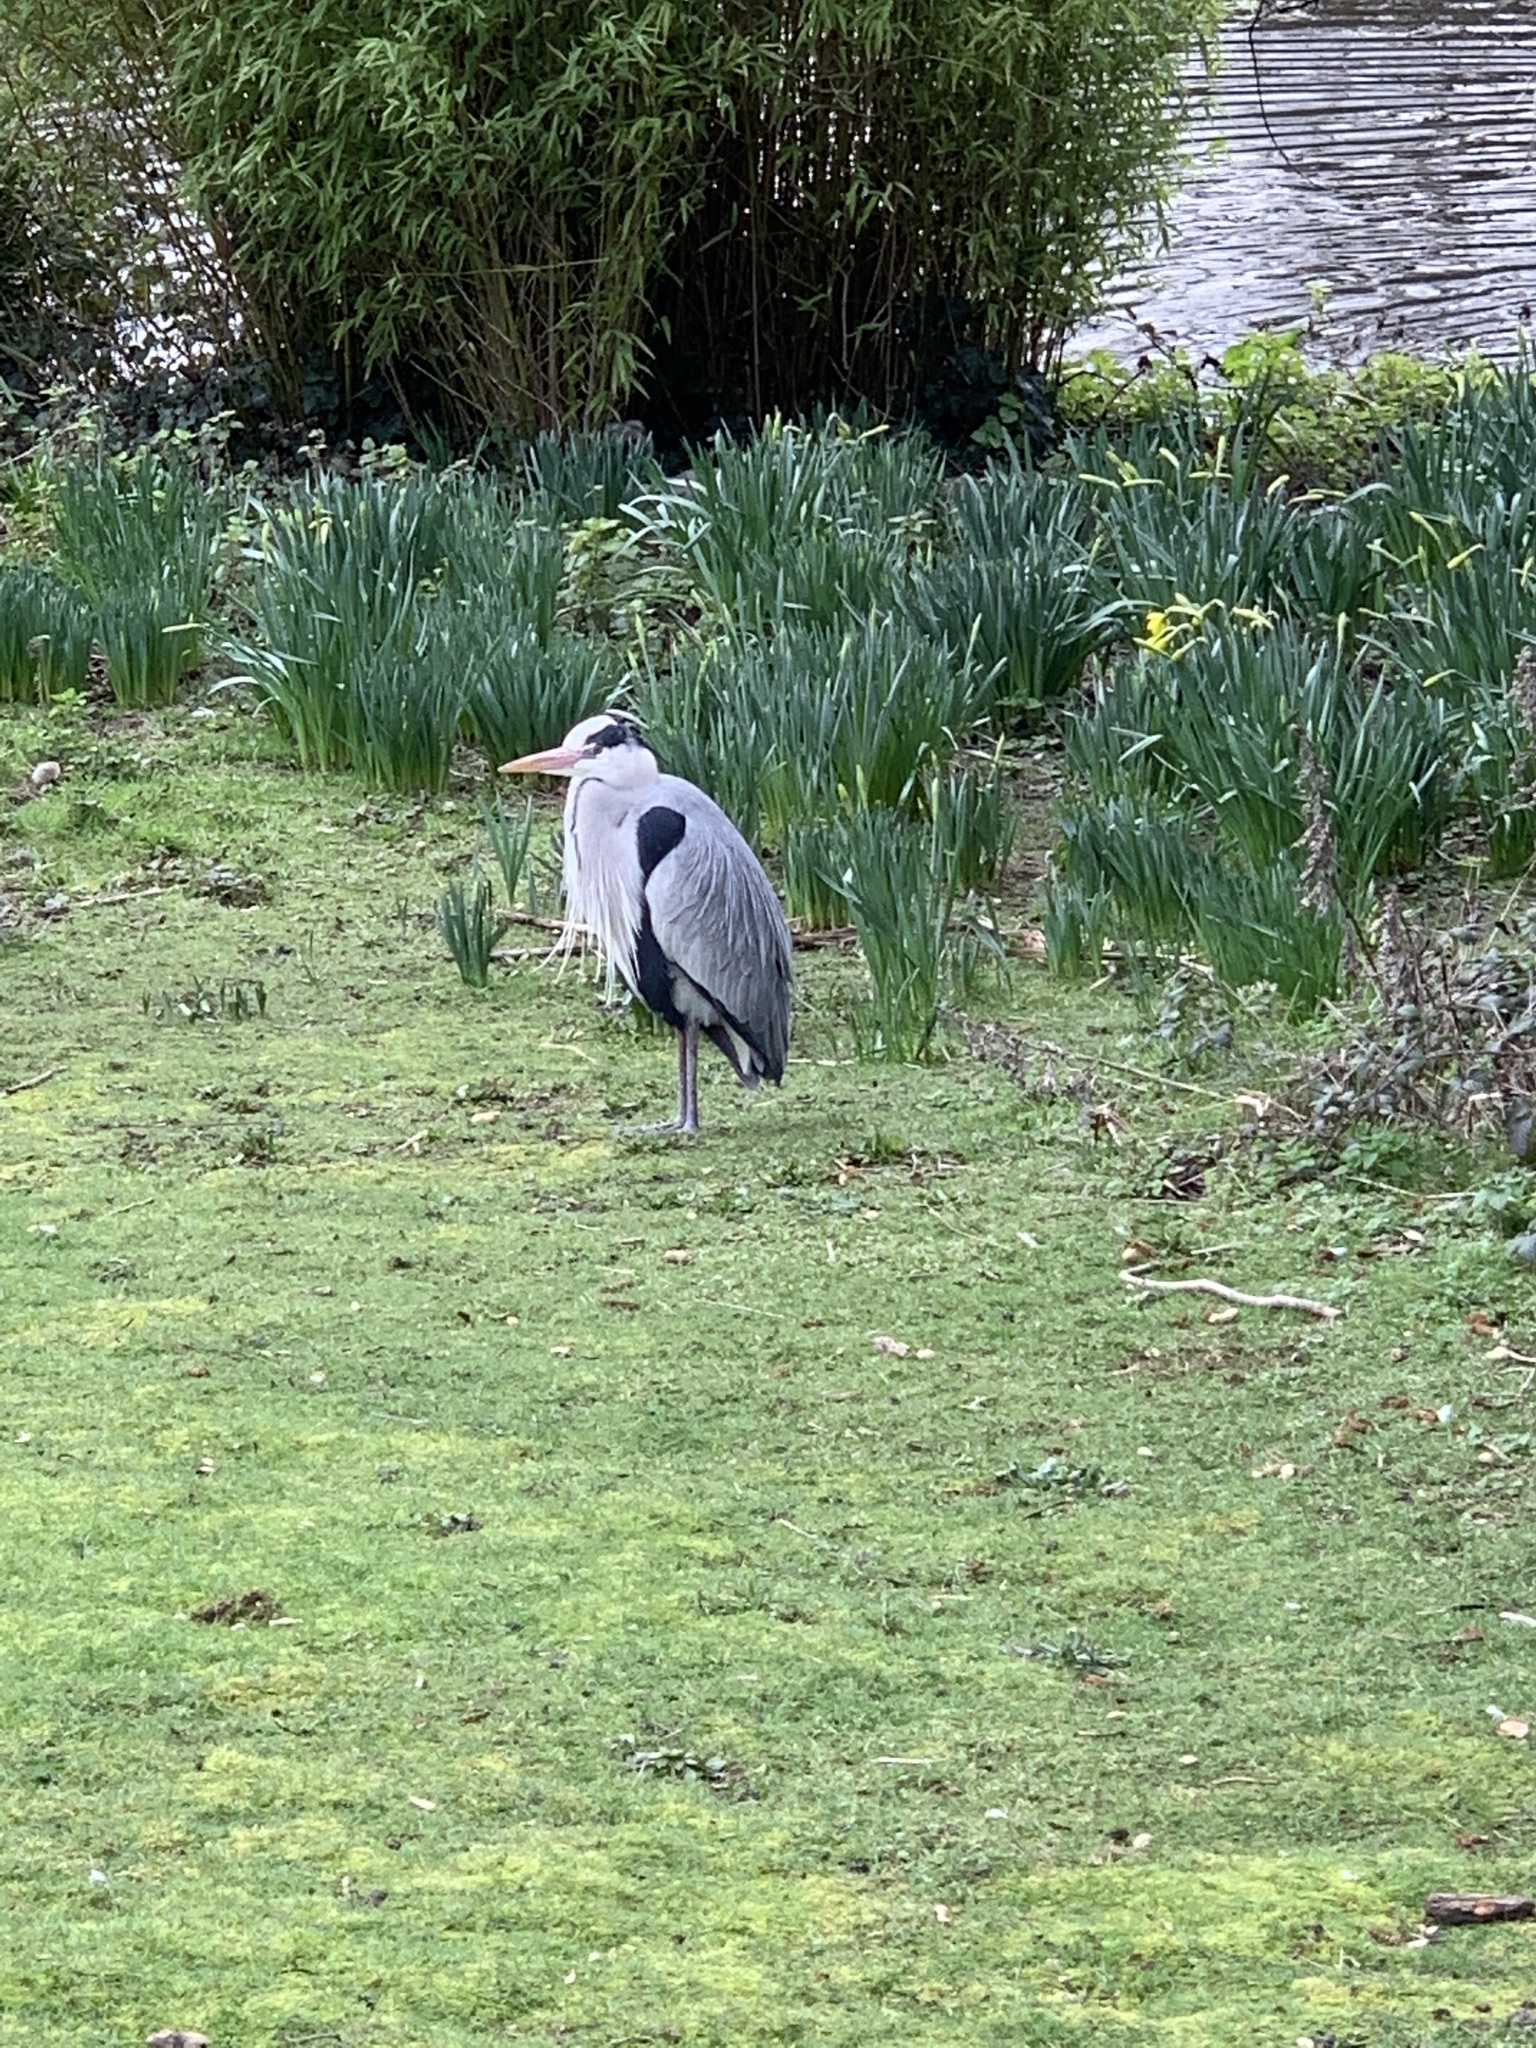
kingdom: Animalia
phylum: Chordata
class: Aves
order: Pelecaniformes
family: Ardeidae
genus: Ardea
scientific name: Ardea cinerea
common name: Grey heron
